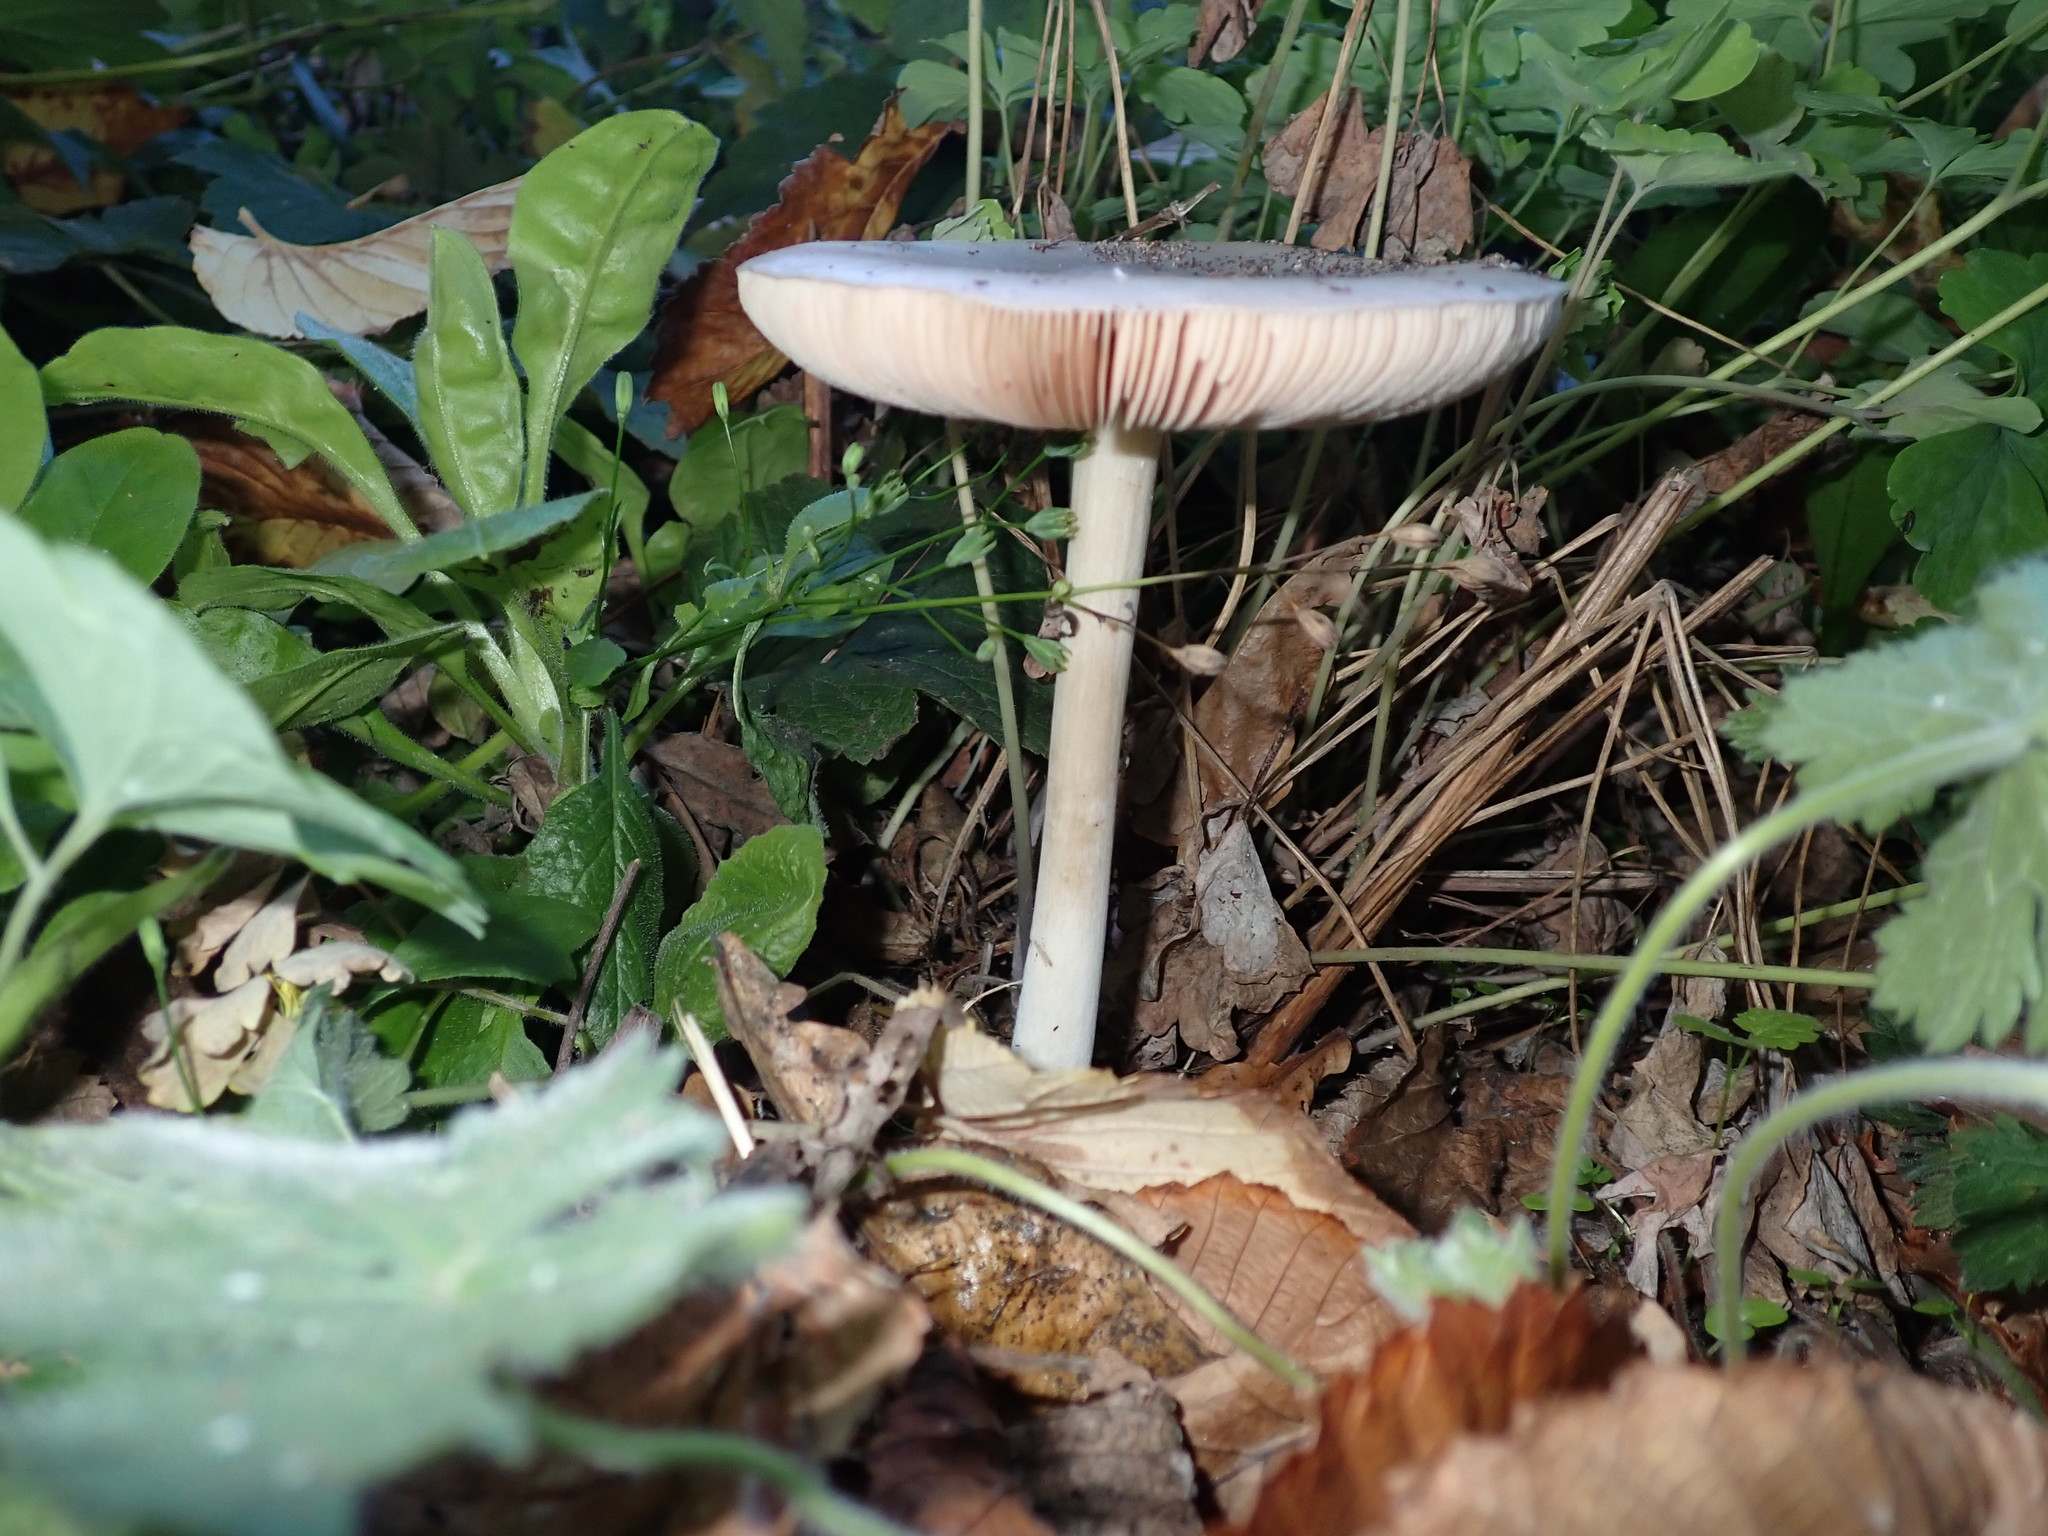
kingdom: Fungi
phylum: Basidiomycota
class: Agaricomycetes
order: Agaricales
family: Pluteaceae
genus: Volvopluteus
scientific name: Volvopluteus gloiocephalus
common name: Stubble rosegill
